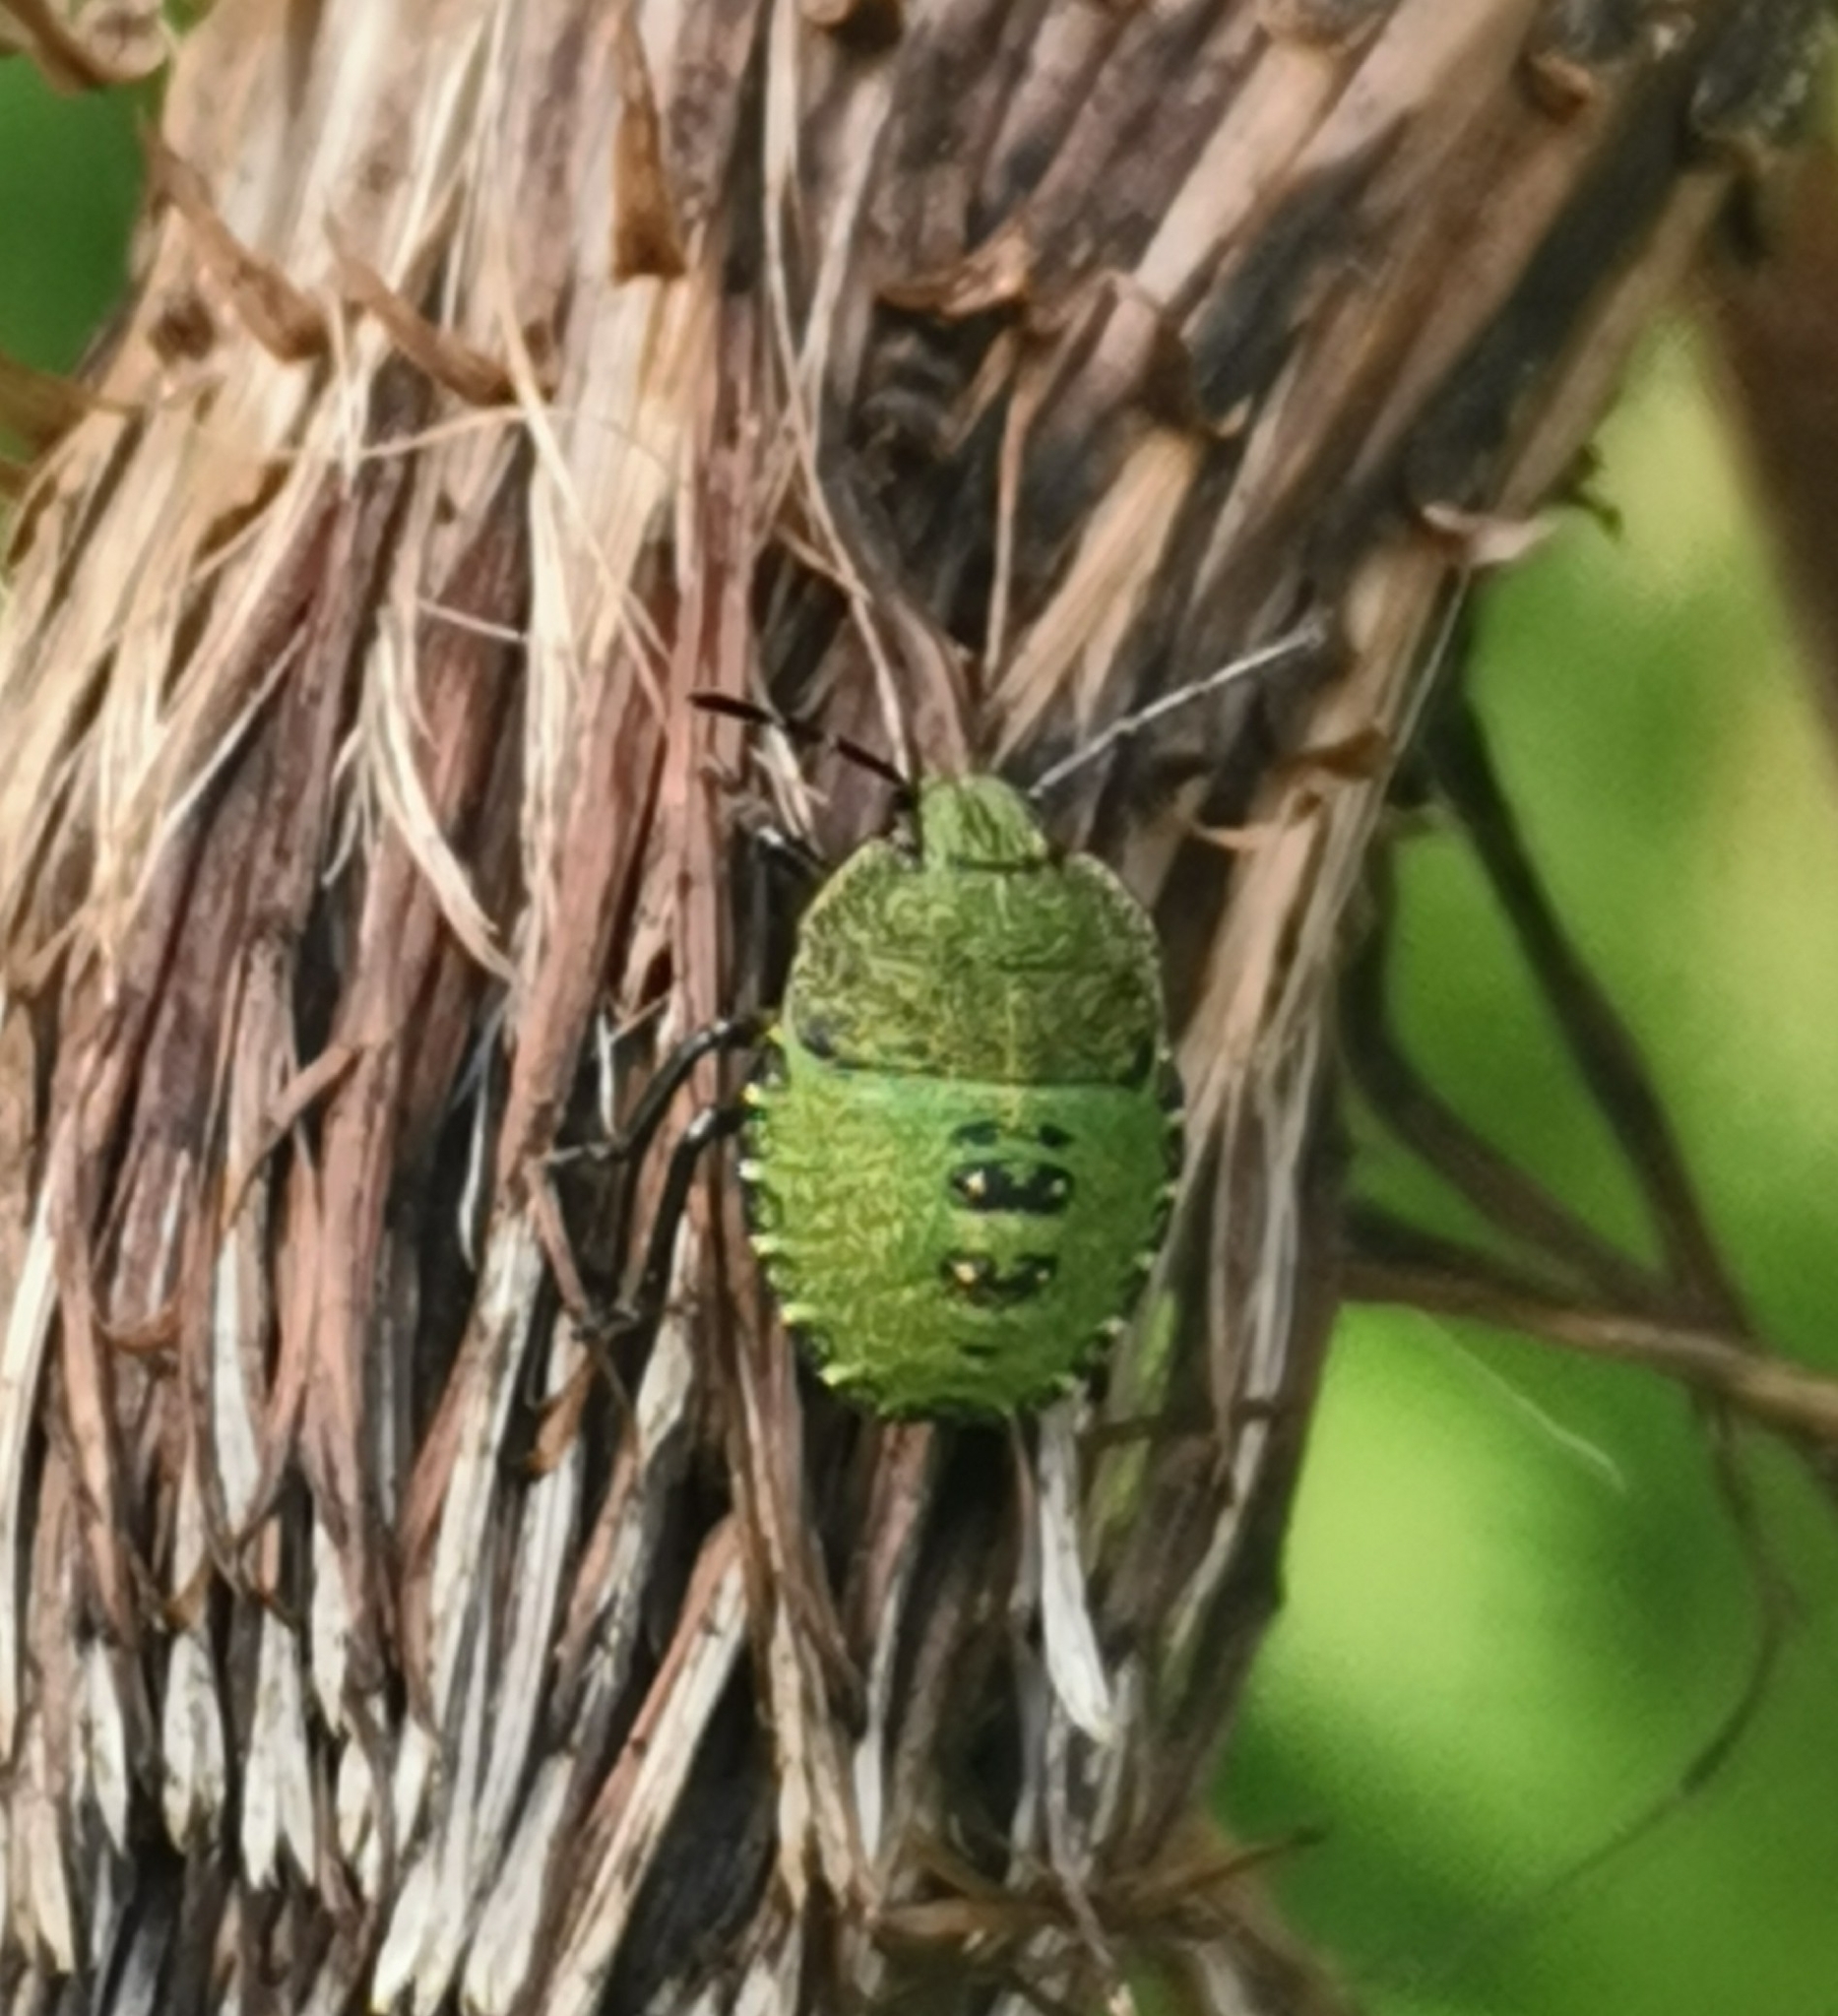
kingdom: Animalia
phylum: Arthropoda
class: Insecta
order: Hemiptera
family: Pentatomidae
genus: Palomena
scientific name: Palomena prasina
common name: Green shieldbug
